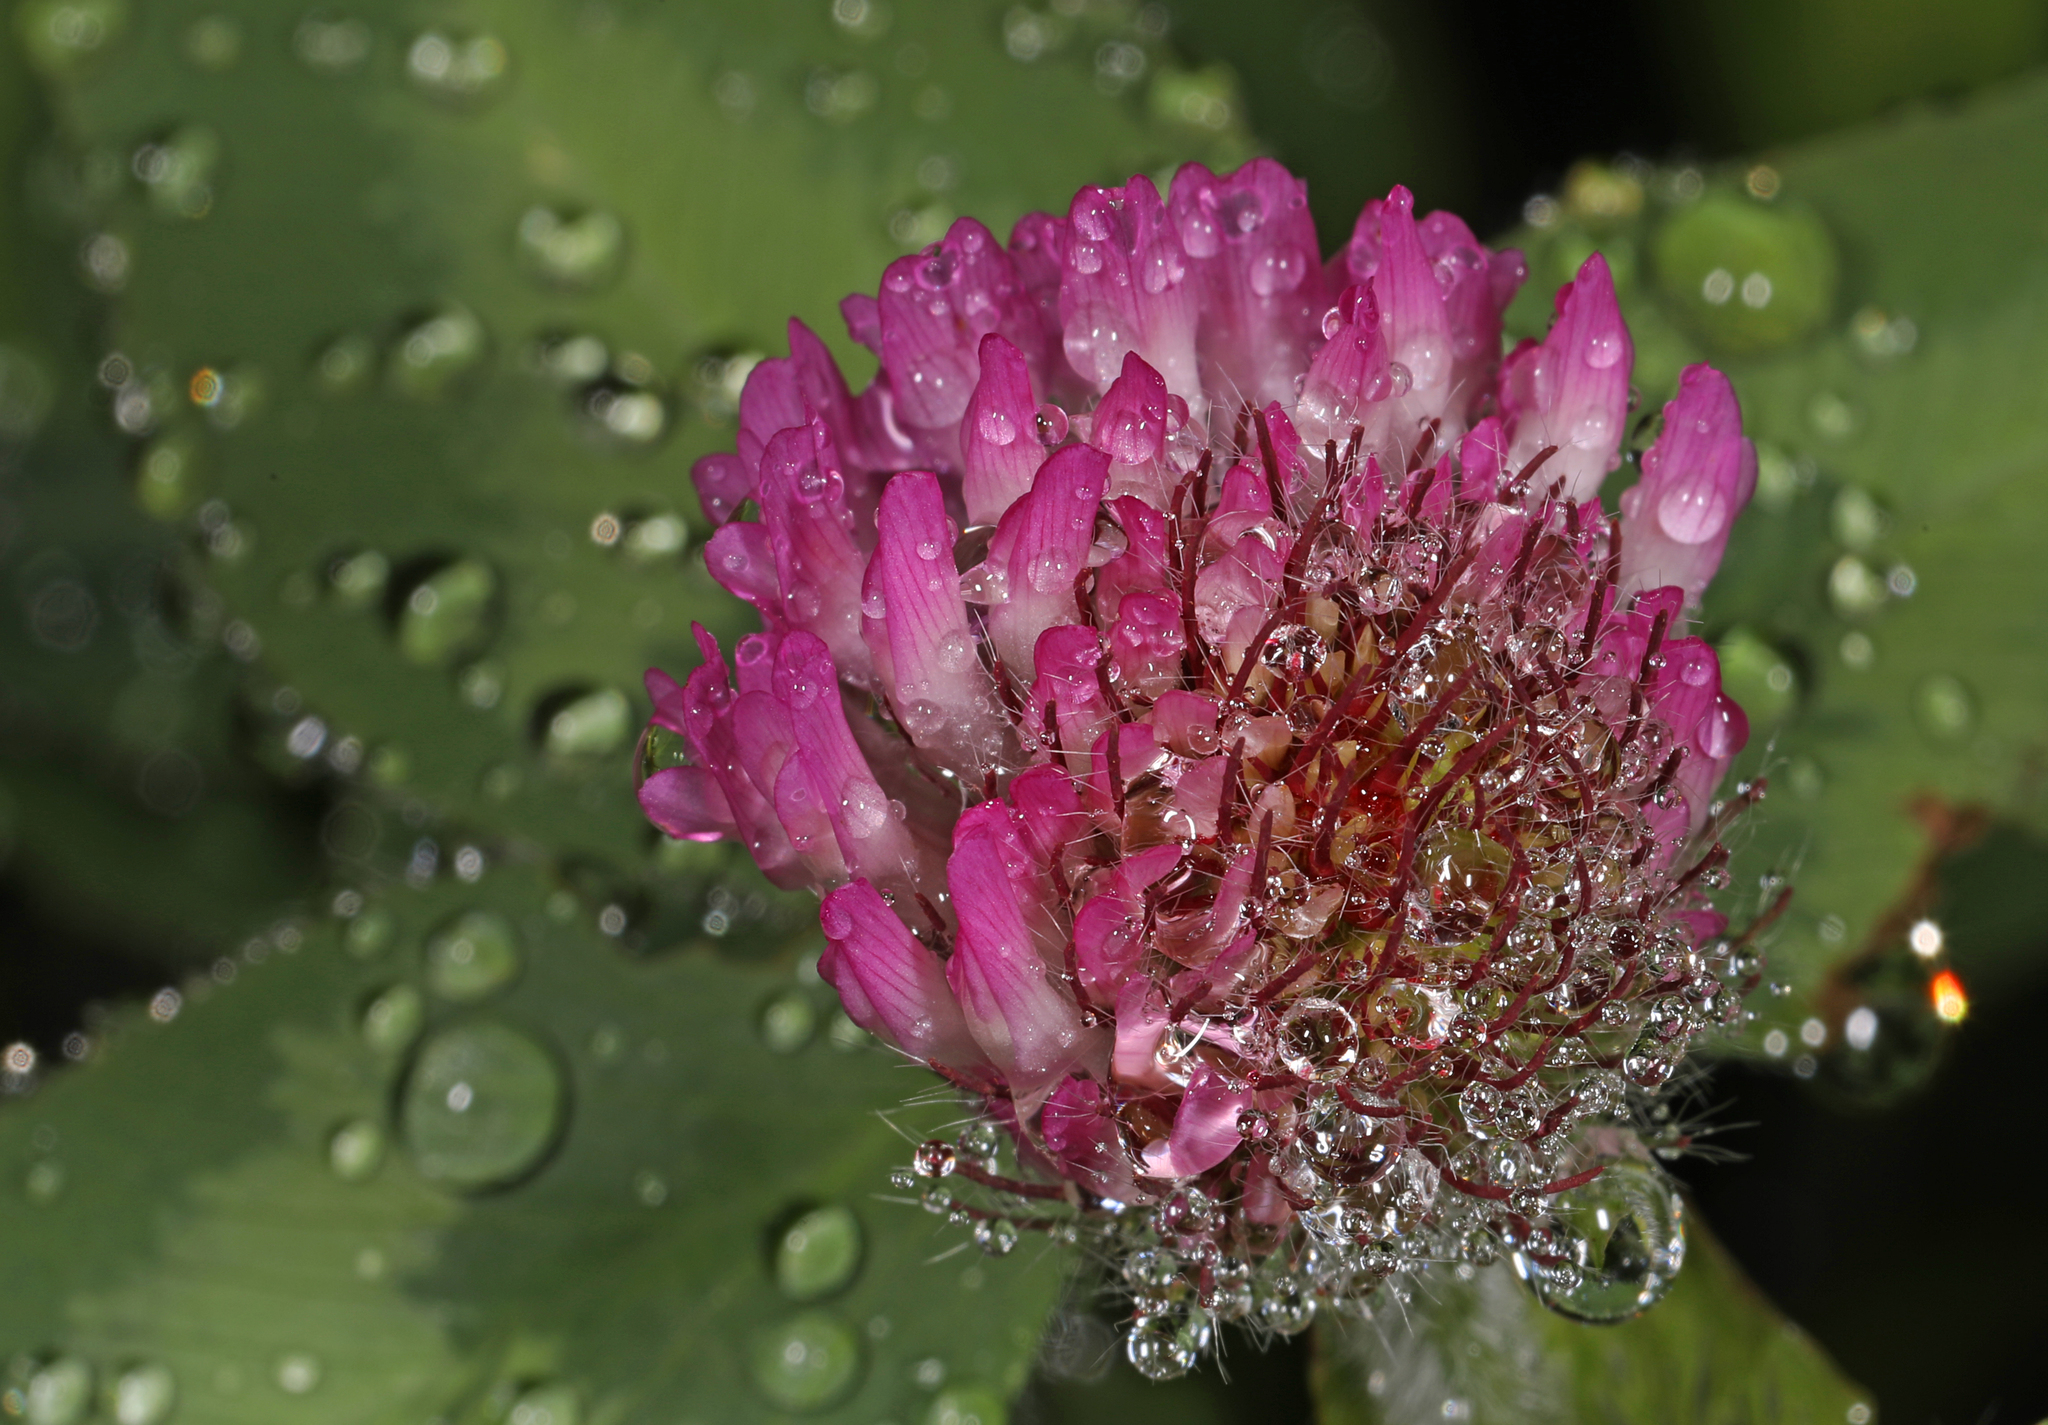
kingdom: Plantae
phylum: Tracheophyta
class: Magnoliopsida
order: Fabales
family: Fabaceae
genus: Trifolium
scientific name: Trifolium pratense
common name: Red clover
